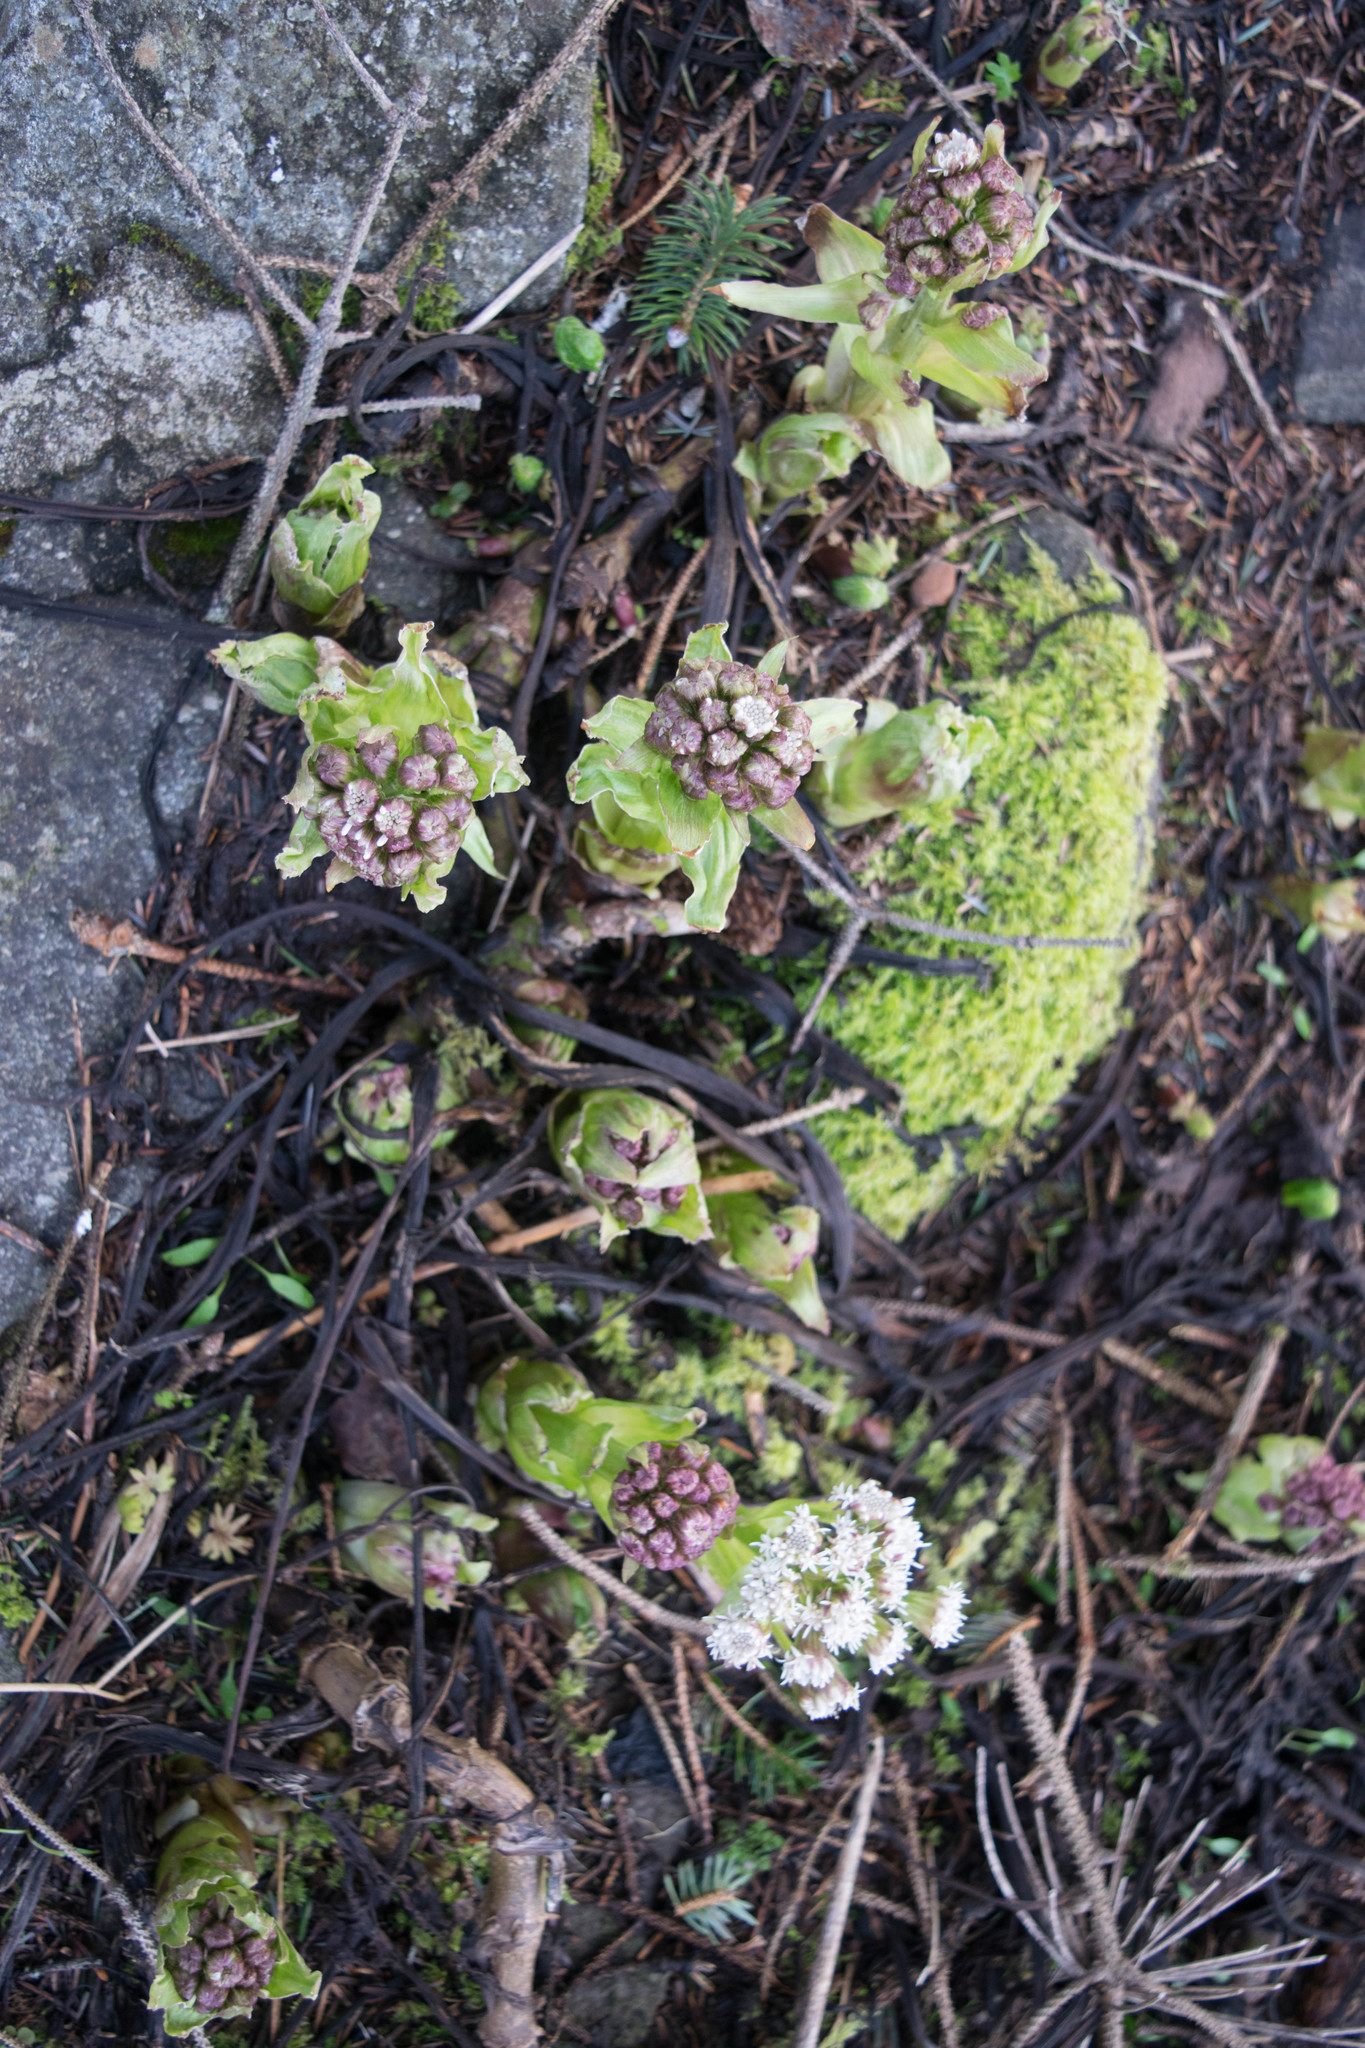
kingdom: Plantae
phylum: Tracheophyta
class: Magnoliopsida
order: Asterales
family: Asteraceae
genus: Petasites
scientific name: Petasites frigidus
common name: Arctic butterbur
